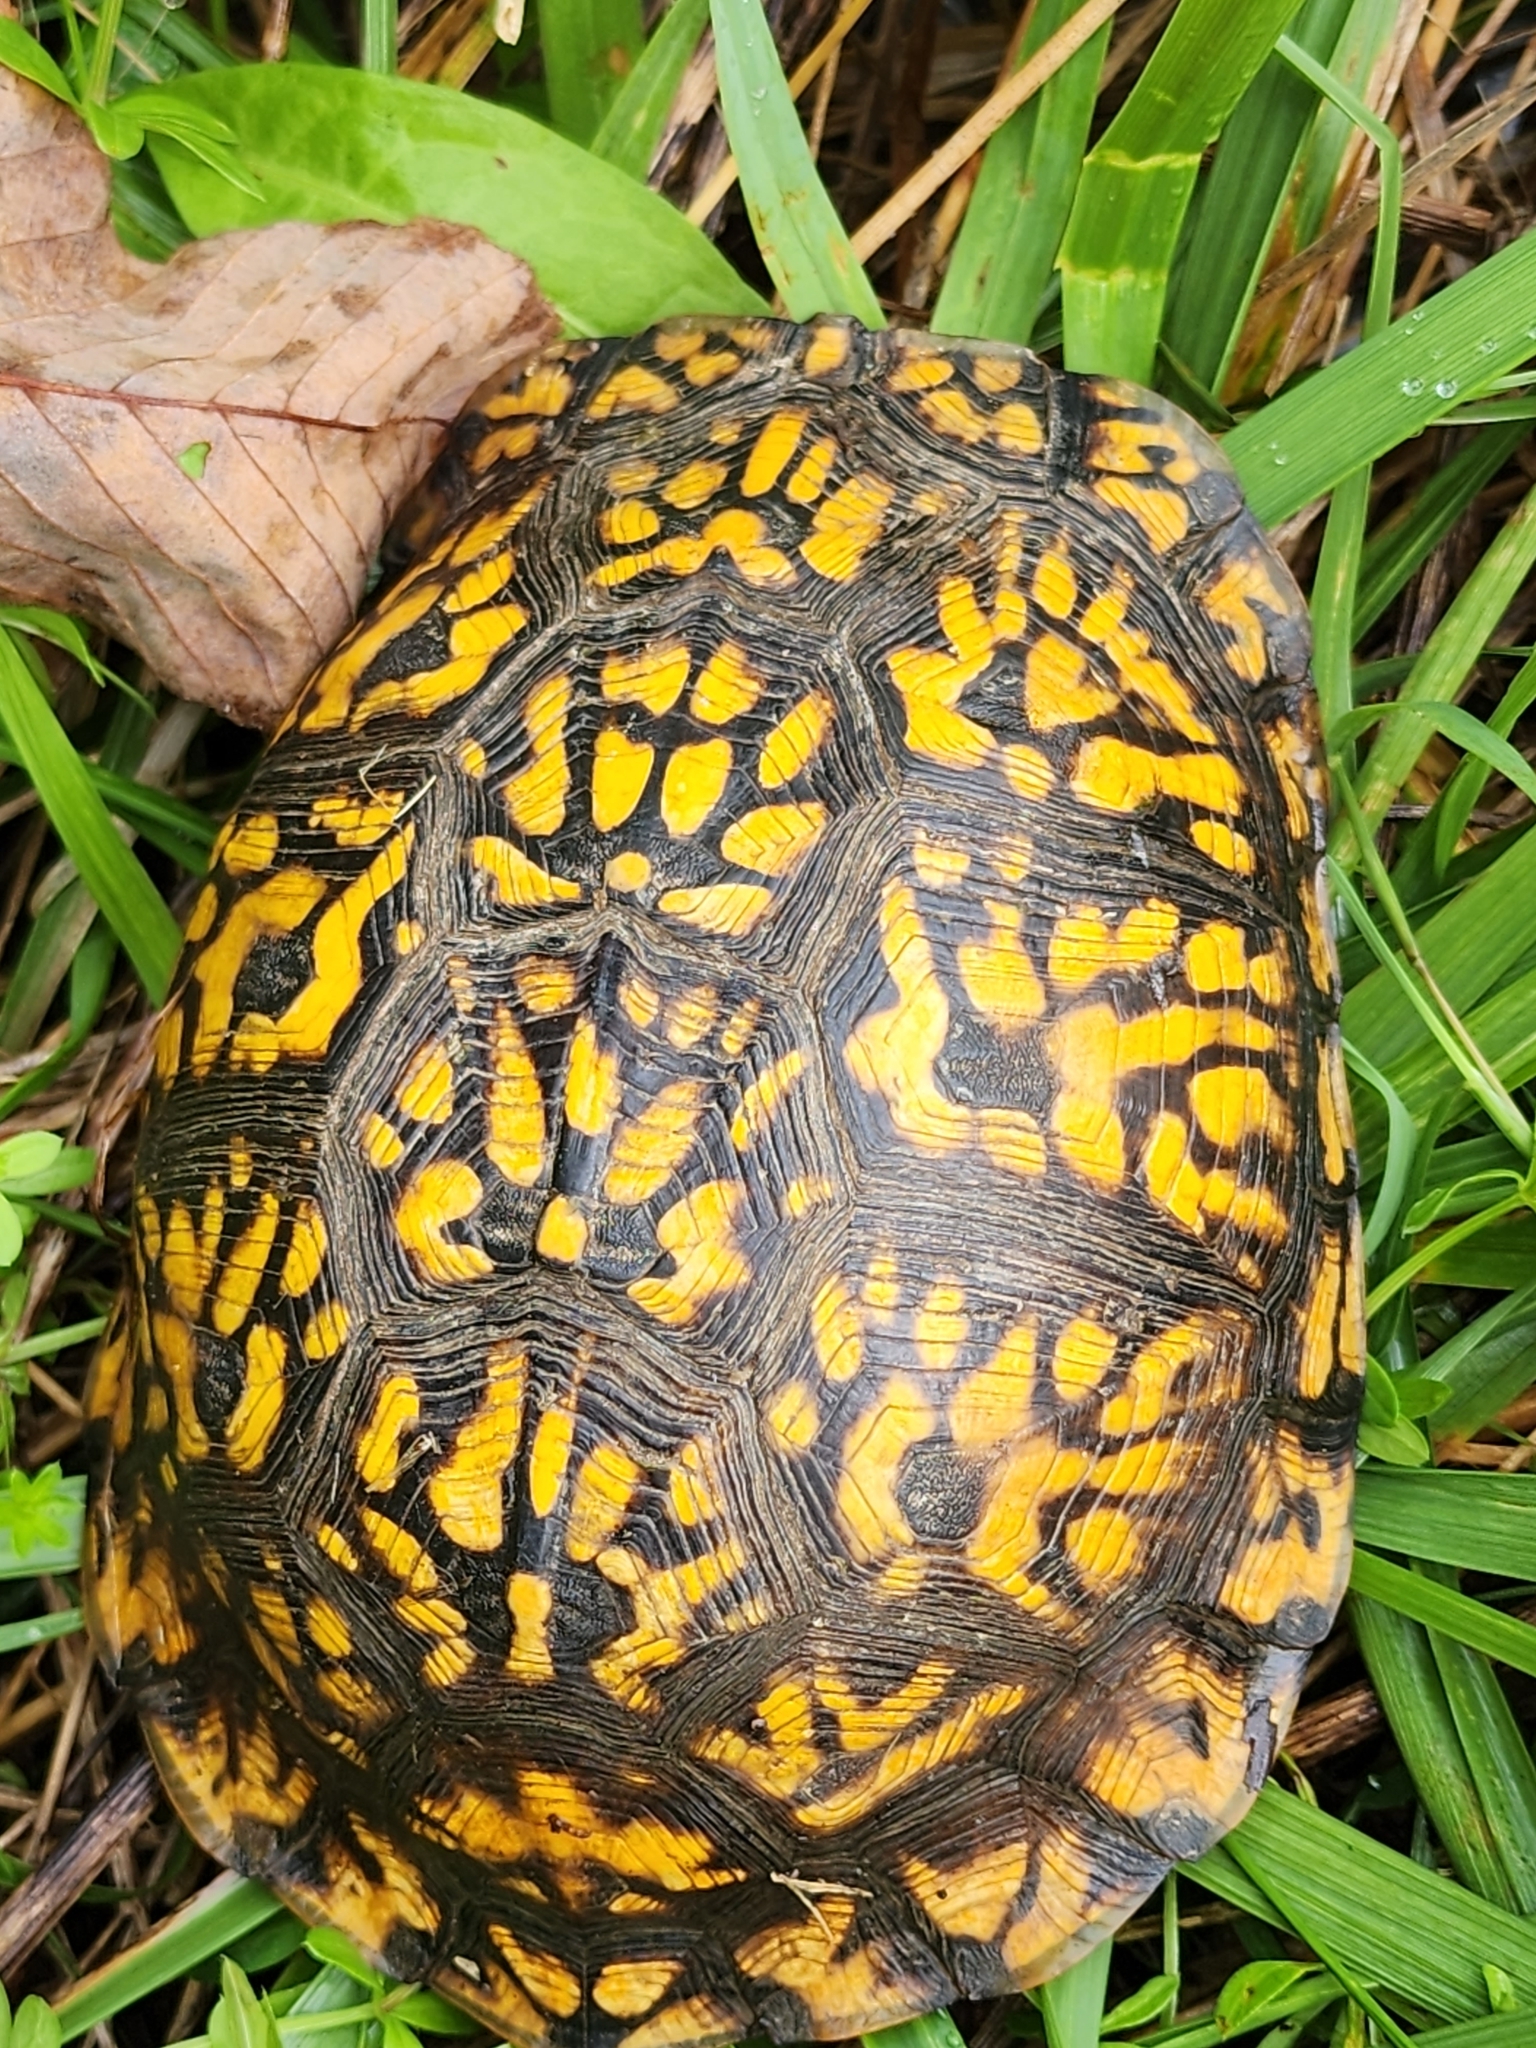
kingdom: Animalia
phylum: Chordata
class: Testudines
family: Emydidae
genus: Terrapene
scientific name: Terrapene carolina
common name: Common box turtle
